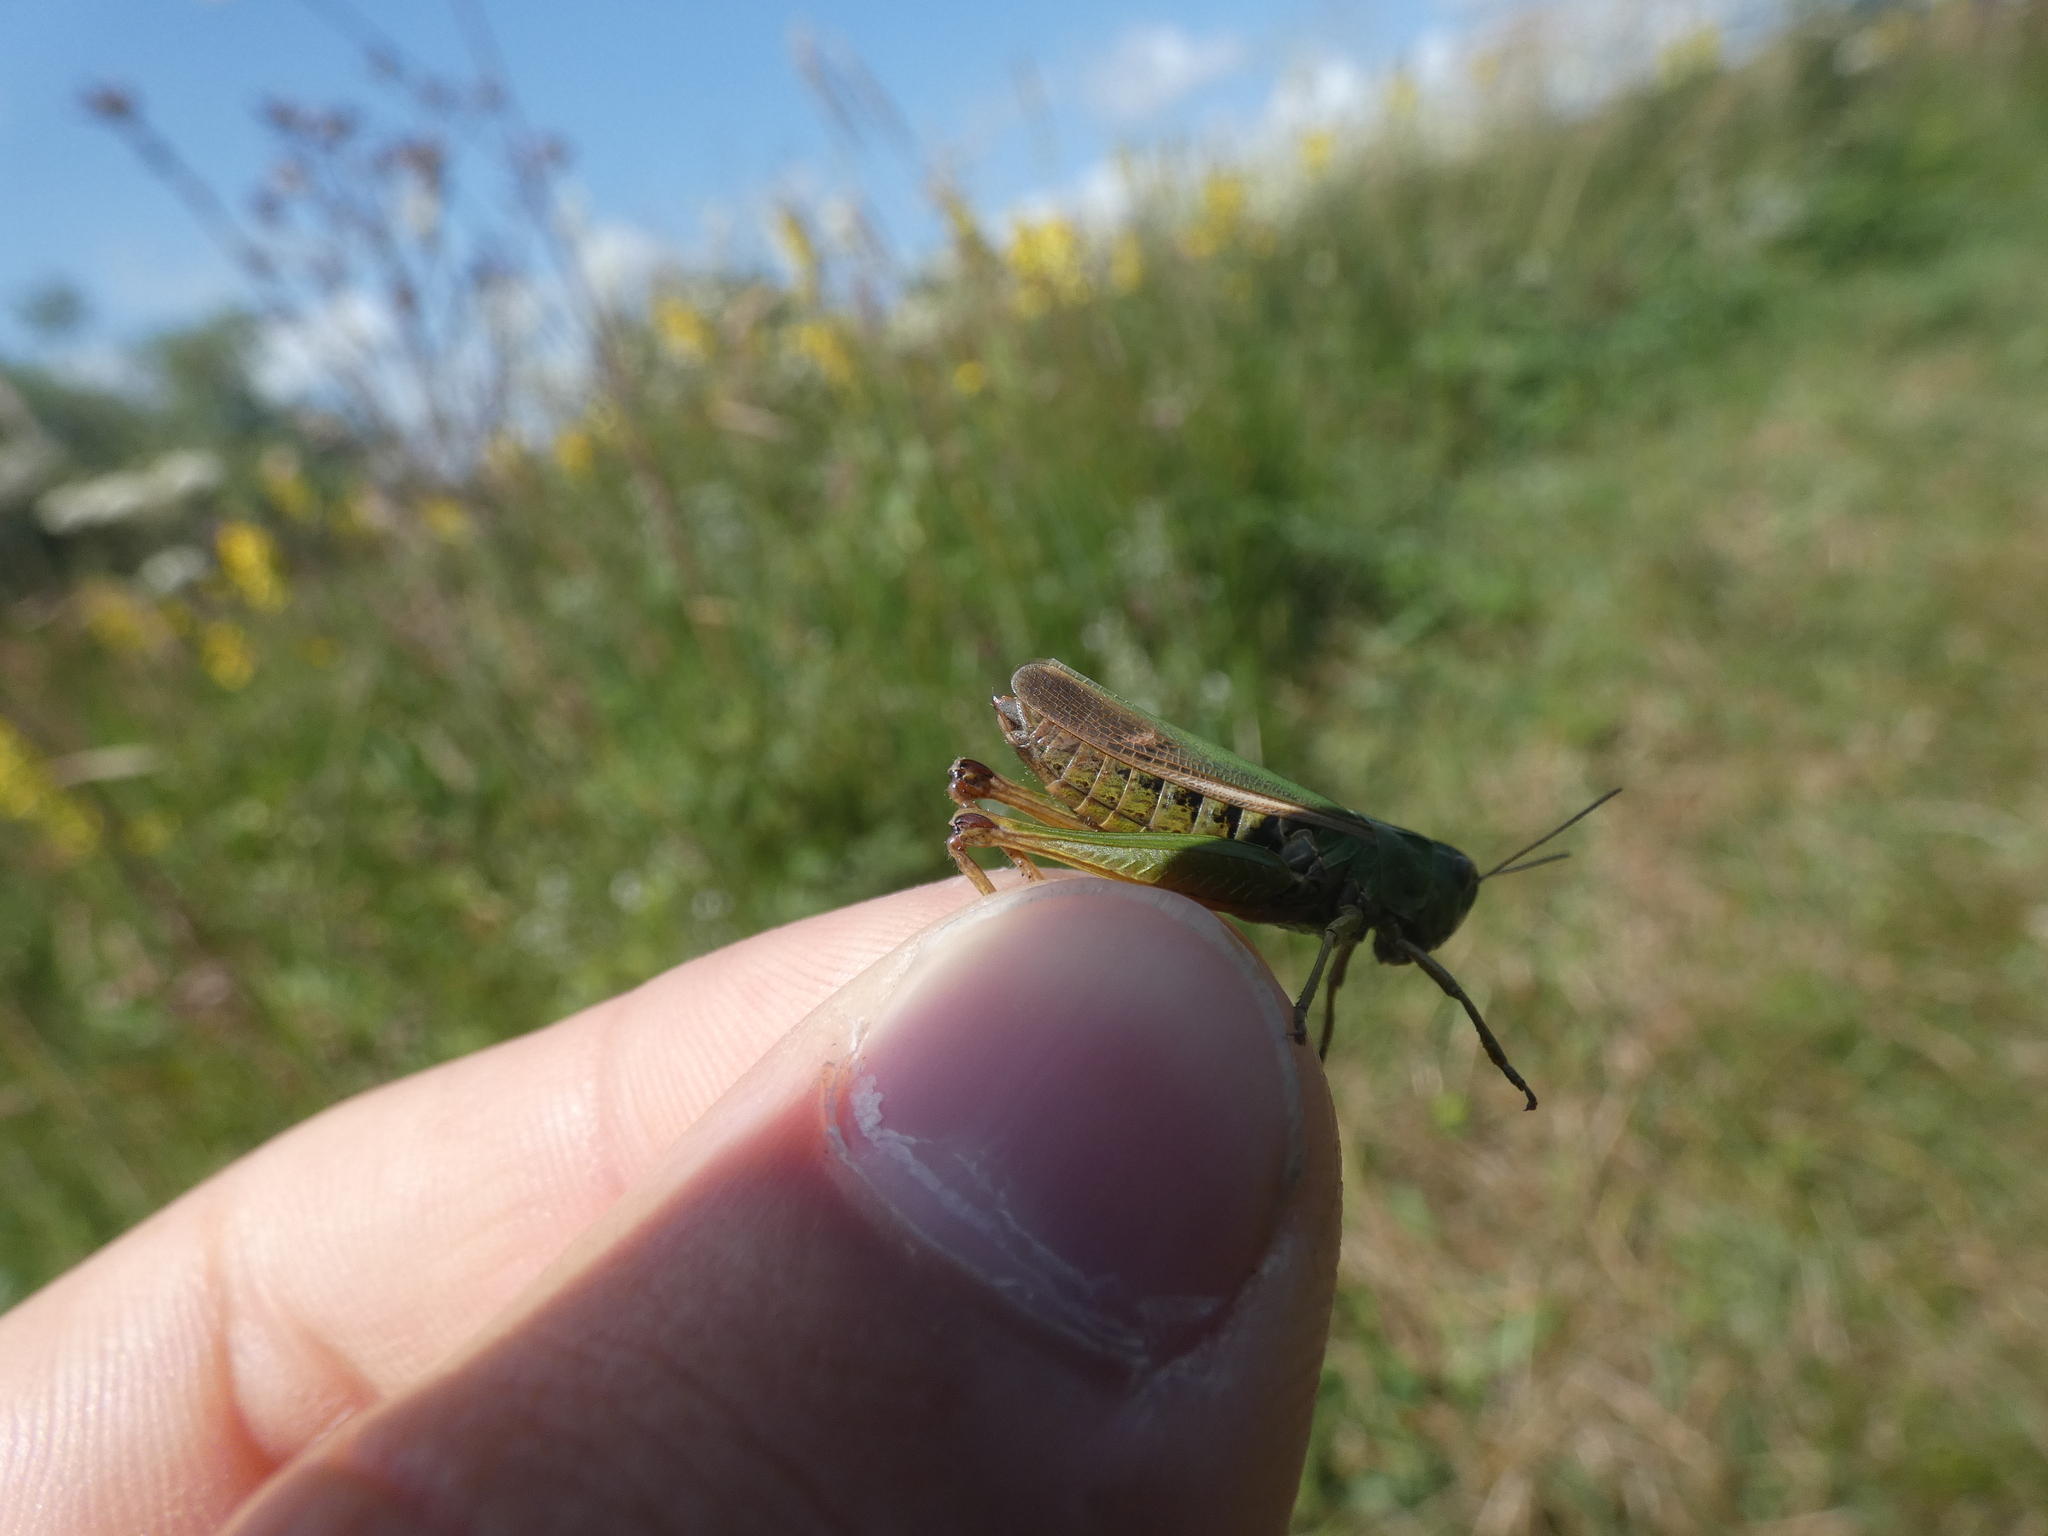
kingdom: Animalia
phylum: Arthropoda
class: Insecta
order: Orthoptera
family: Acrididae
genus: Omocestus
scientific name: Omocestus viridulus
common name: Common green grasshopper
